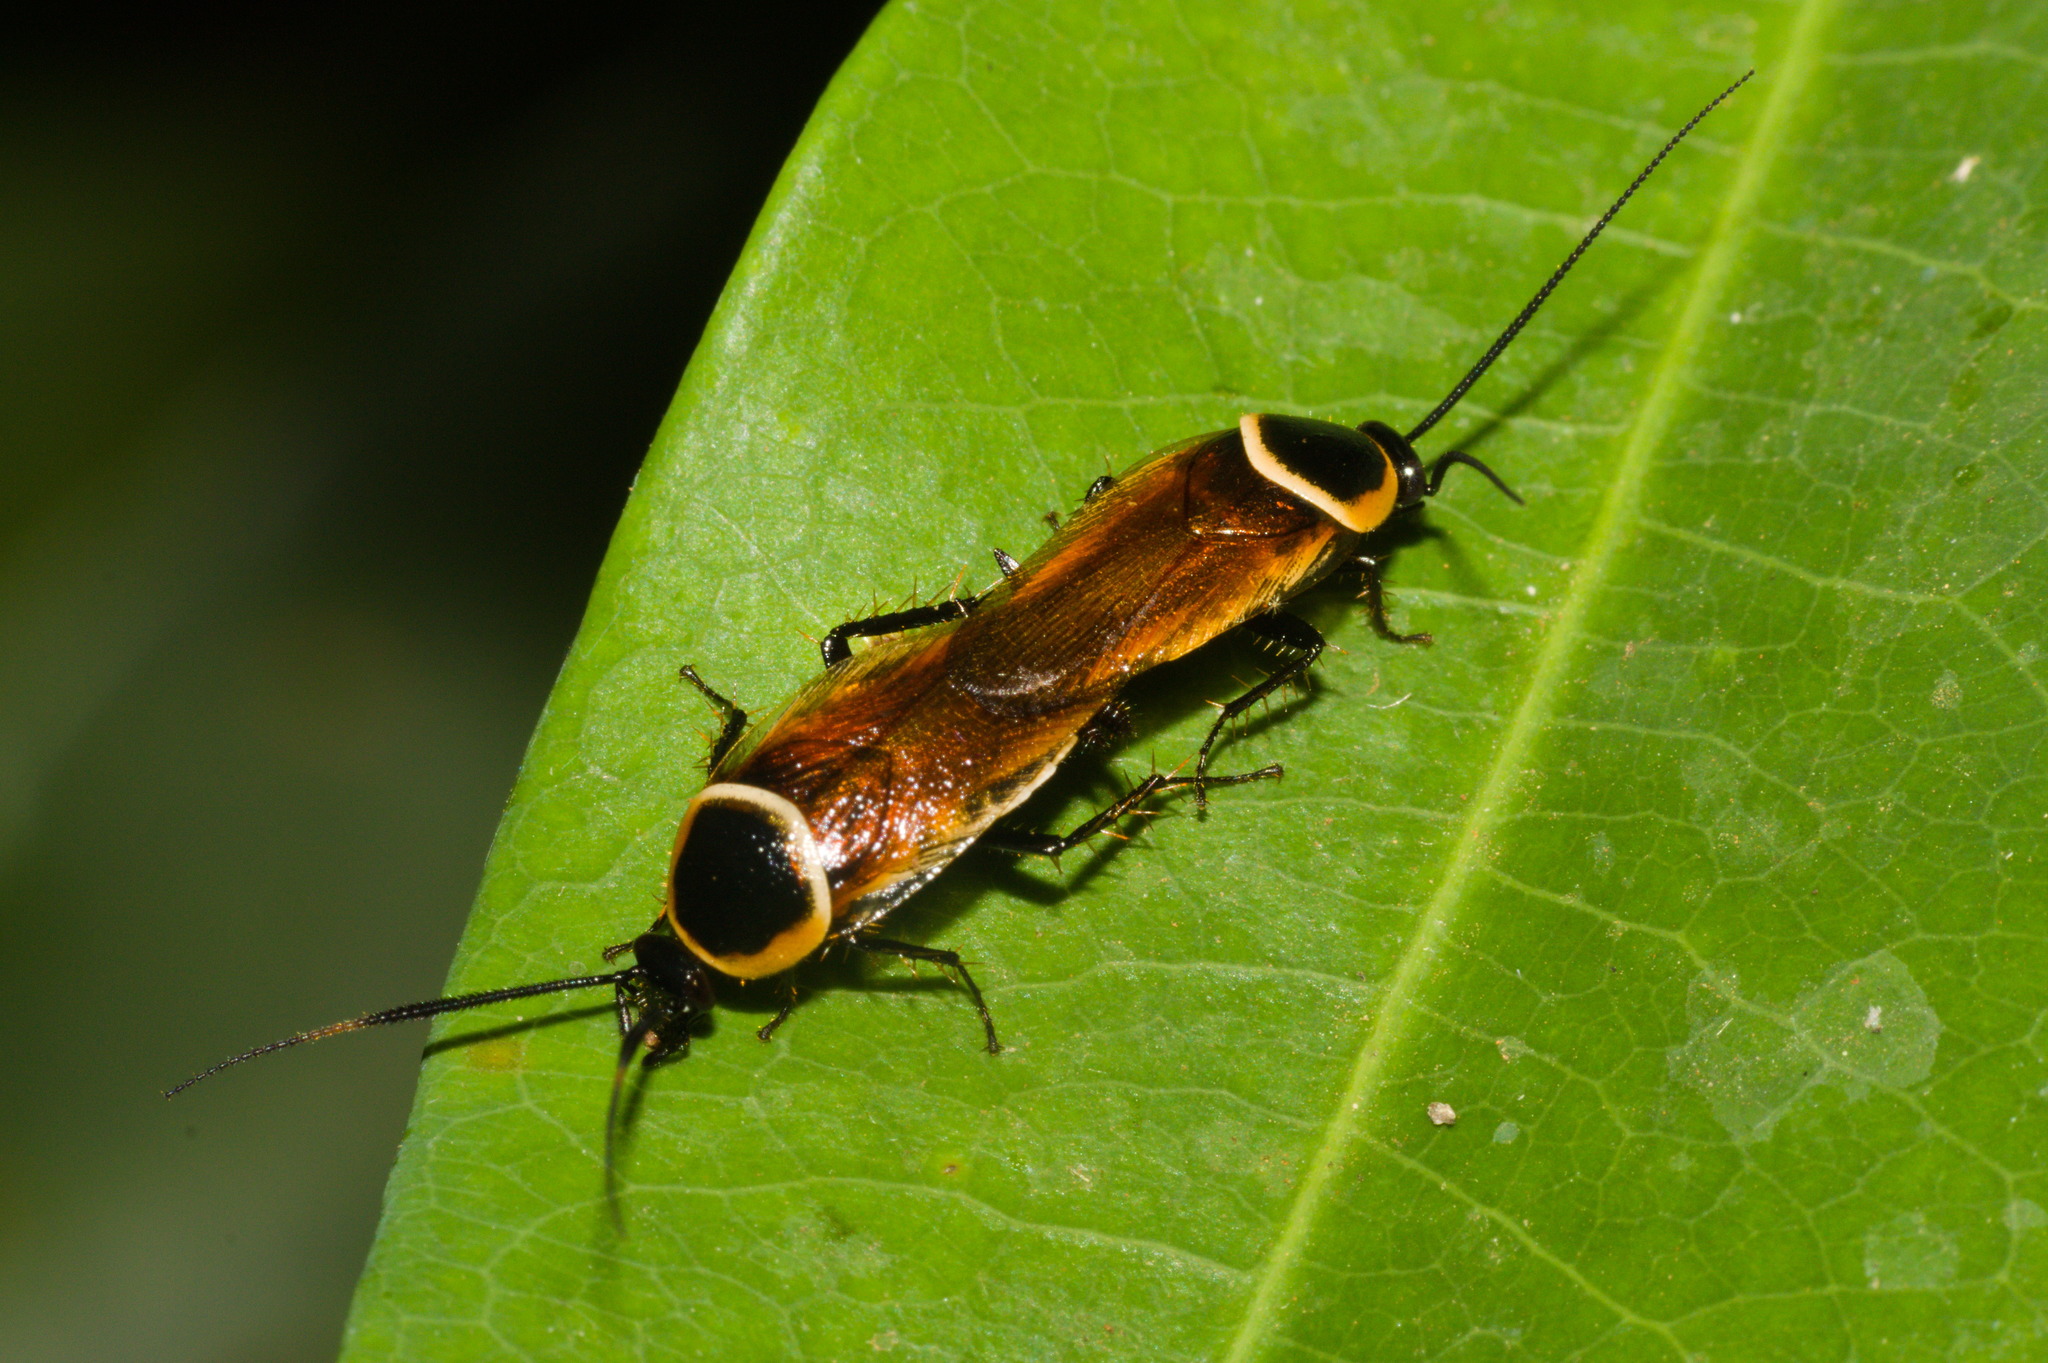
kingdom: Animalia
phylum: Arthropoda
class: Insecta
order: Blattodea
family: Ectobiidae
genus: Pseudomops
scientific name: Pseudomops neglectus
